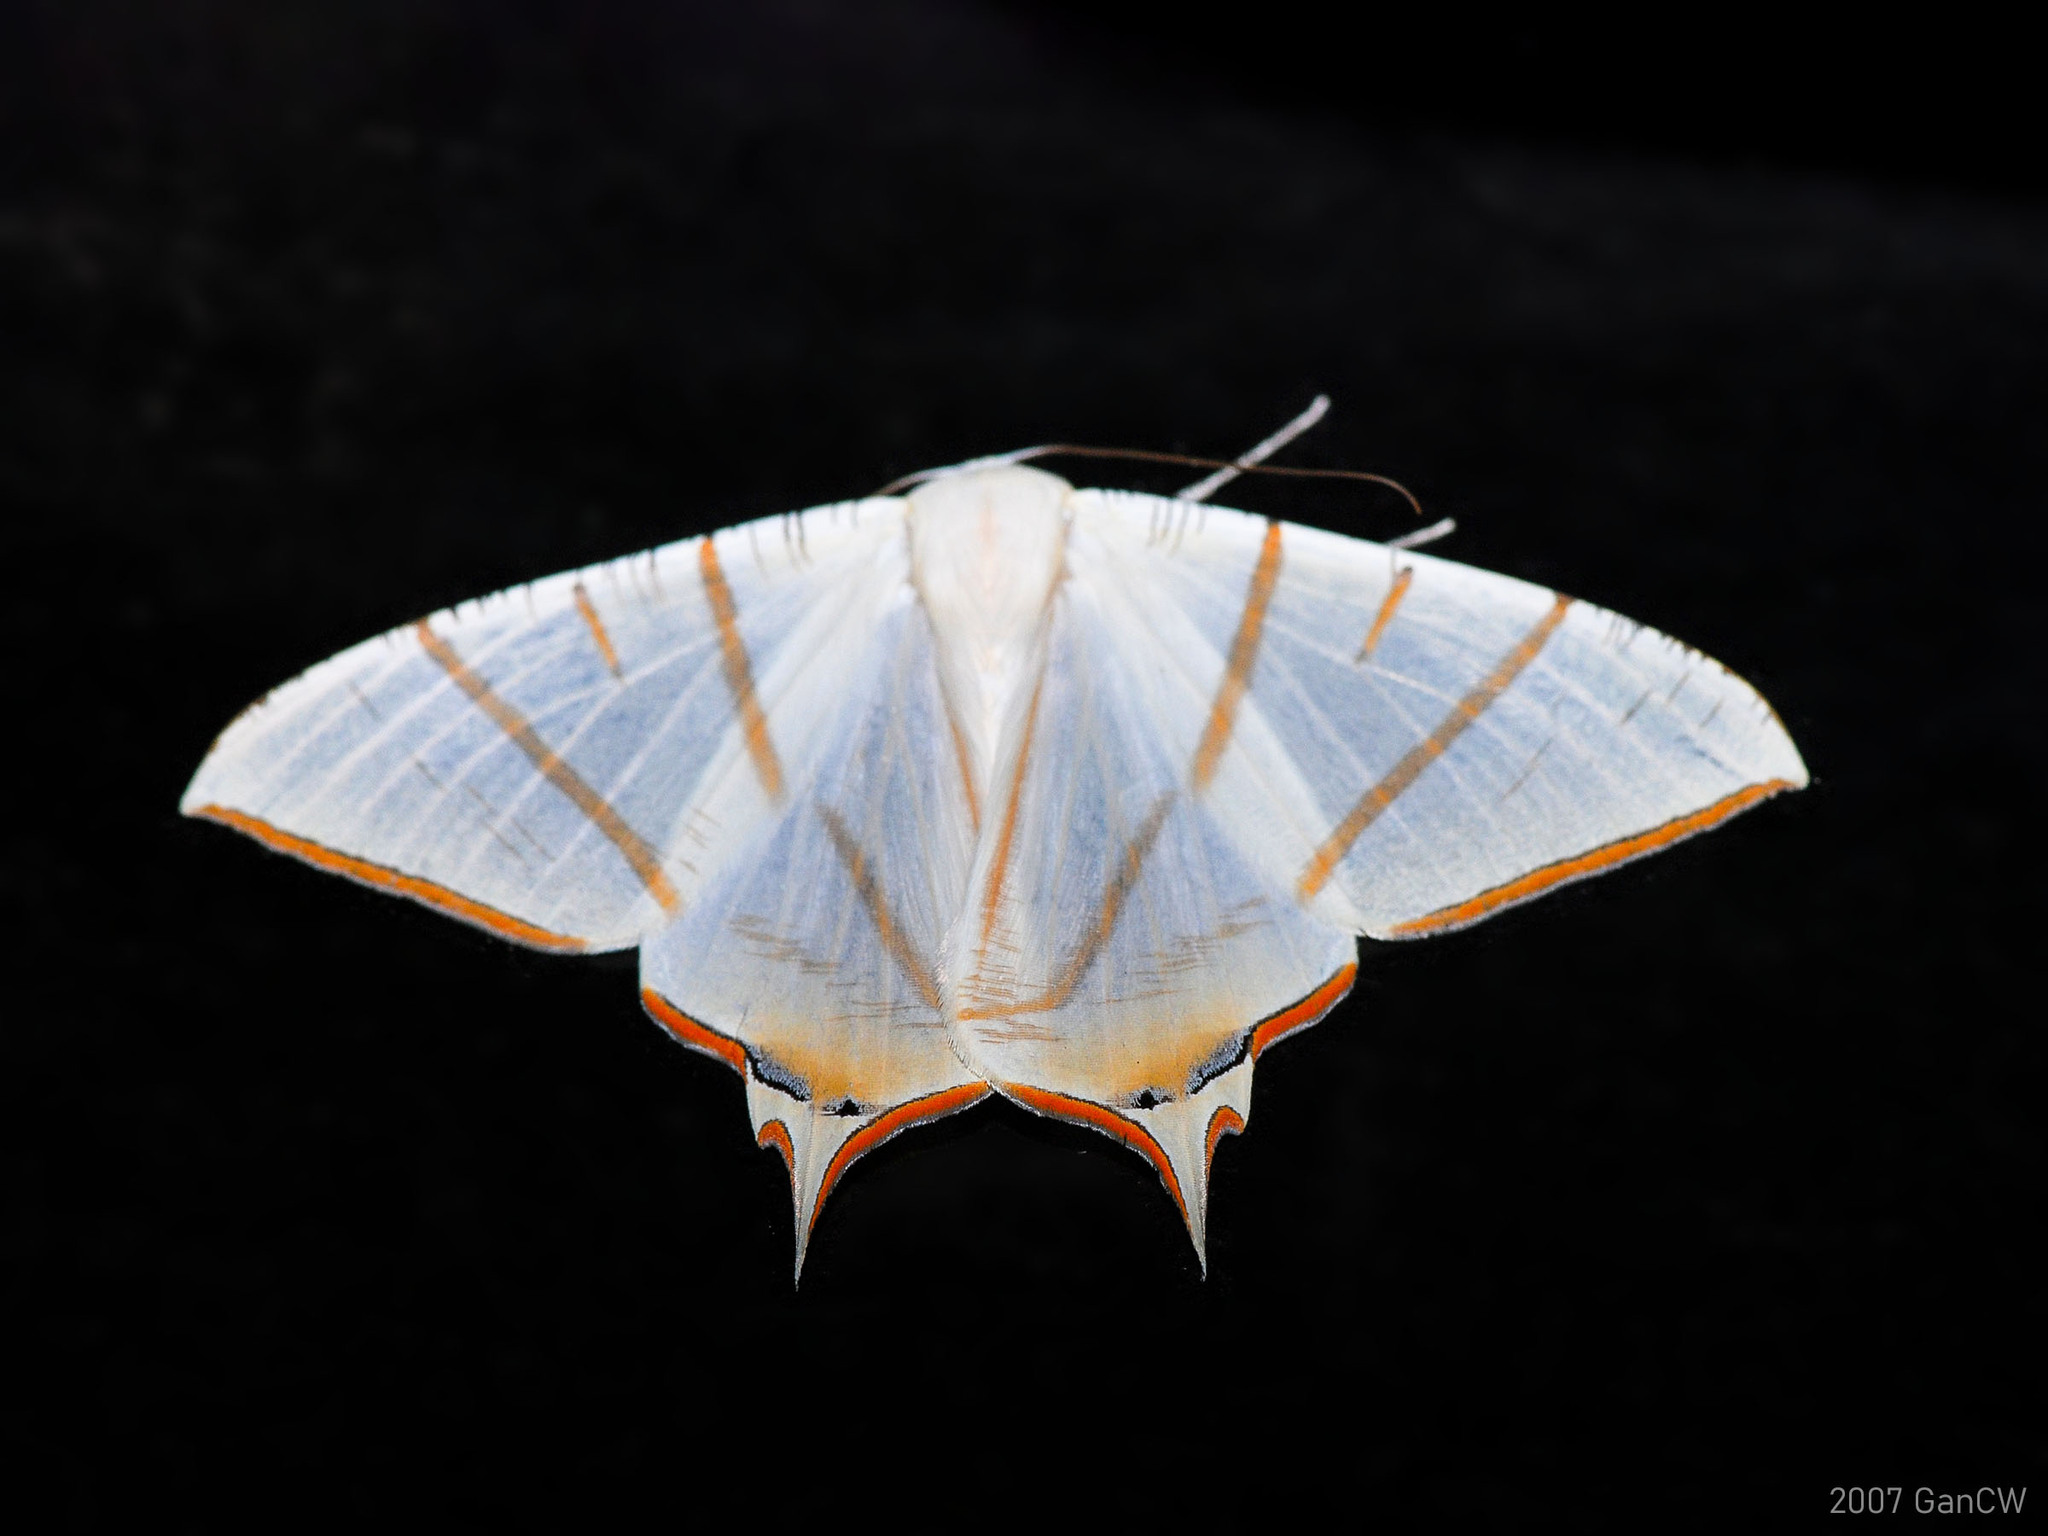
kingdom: Animalia
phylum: Arthropoda
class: Insecta
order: Lepidoptera
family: Geometridae
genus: Ourapteryx
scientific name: Ourapteryx claretta
